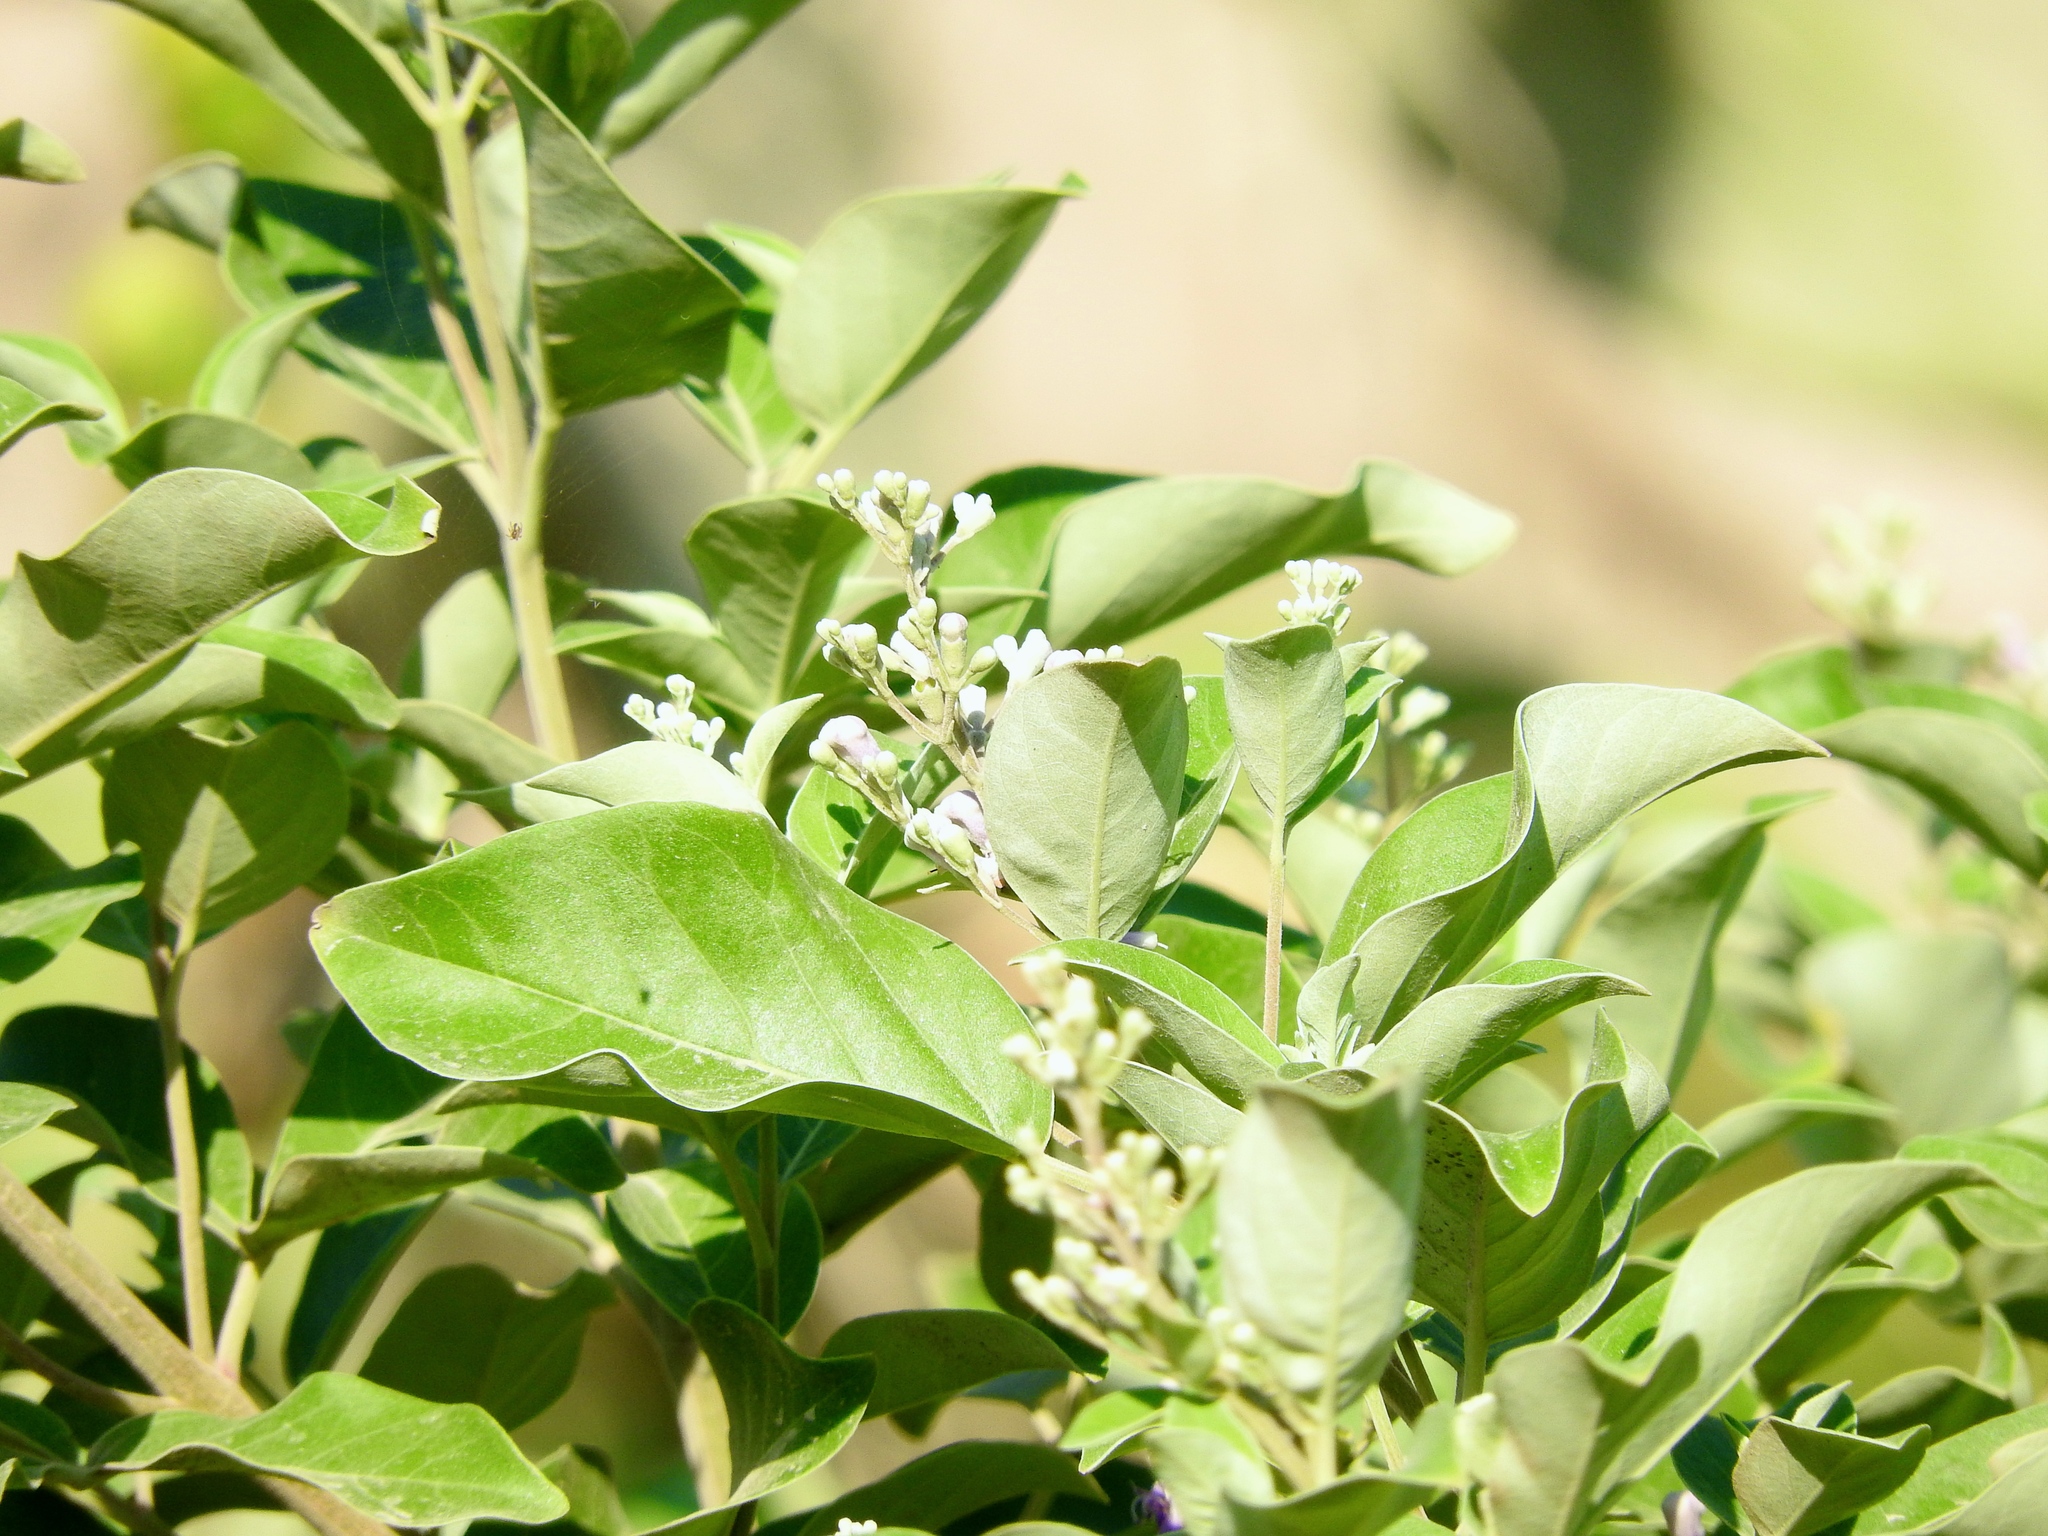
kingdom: Plantae
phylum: Tracheophyta
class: Magnoliopsida
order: Lamiales
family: Lamiaceae
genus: Vitex
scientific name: Vitex trifolia
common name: Simpleleaf chastetree
